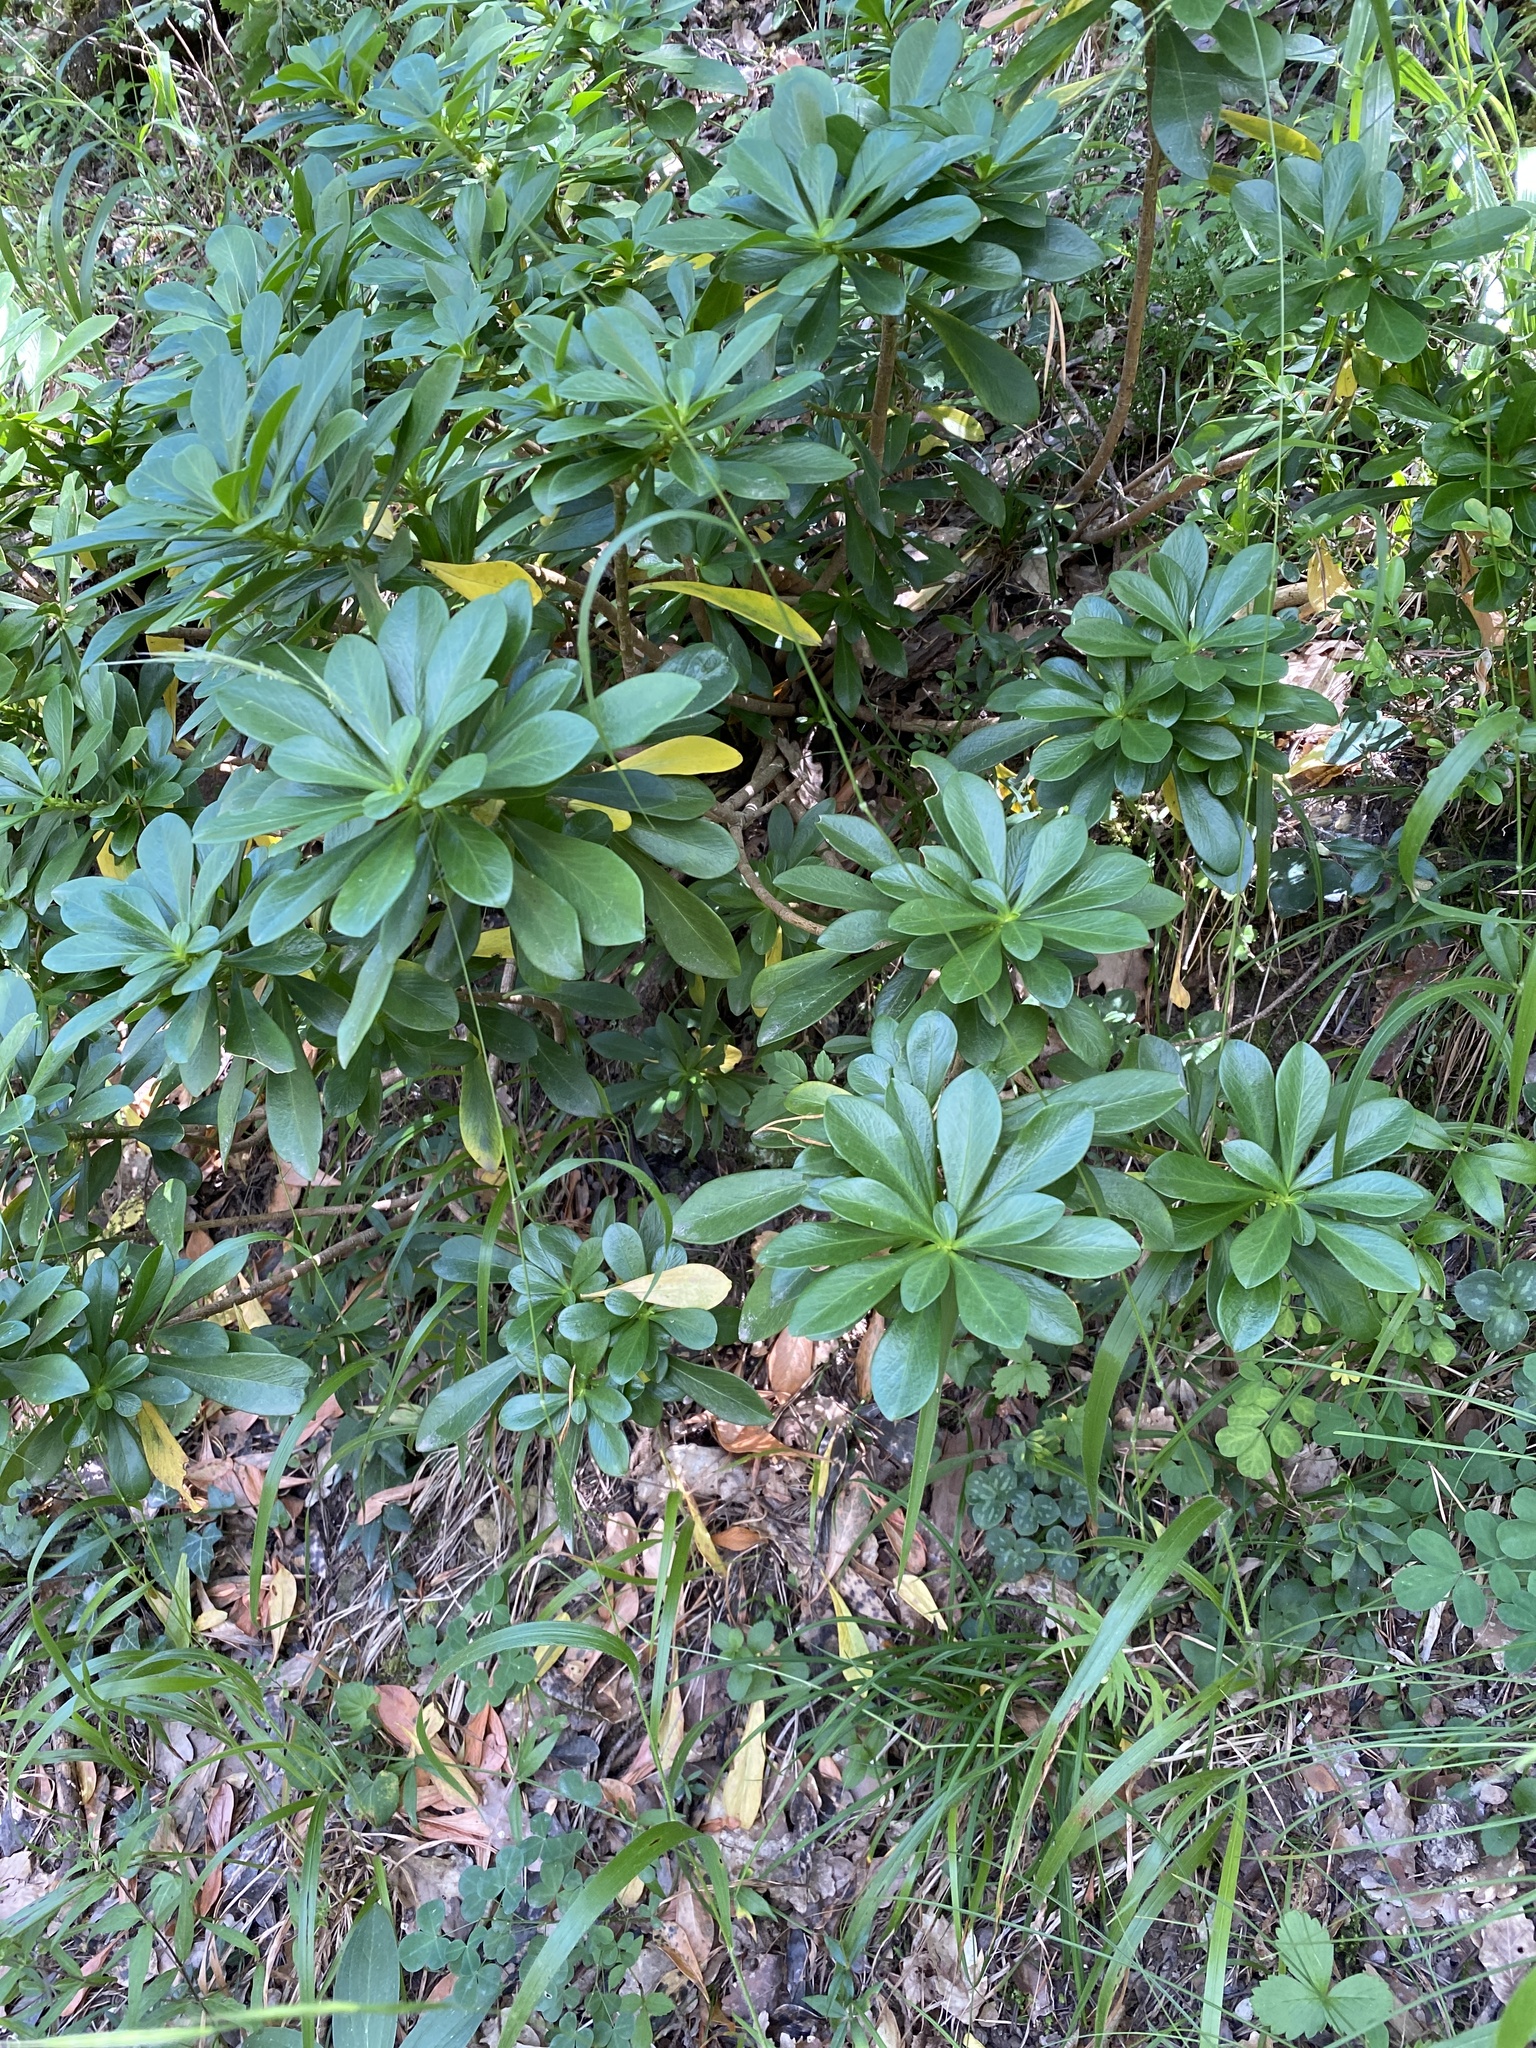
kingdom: Plantae
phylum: Tracheophyta
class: Magnoliopsida
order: Malvales
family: Thymelaeaceae
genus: Daphne
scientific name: Daphne laureola
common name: Spurge-laurel
